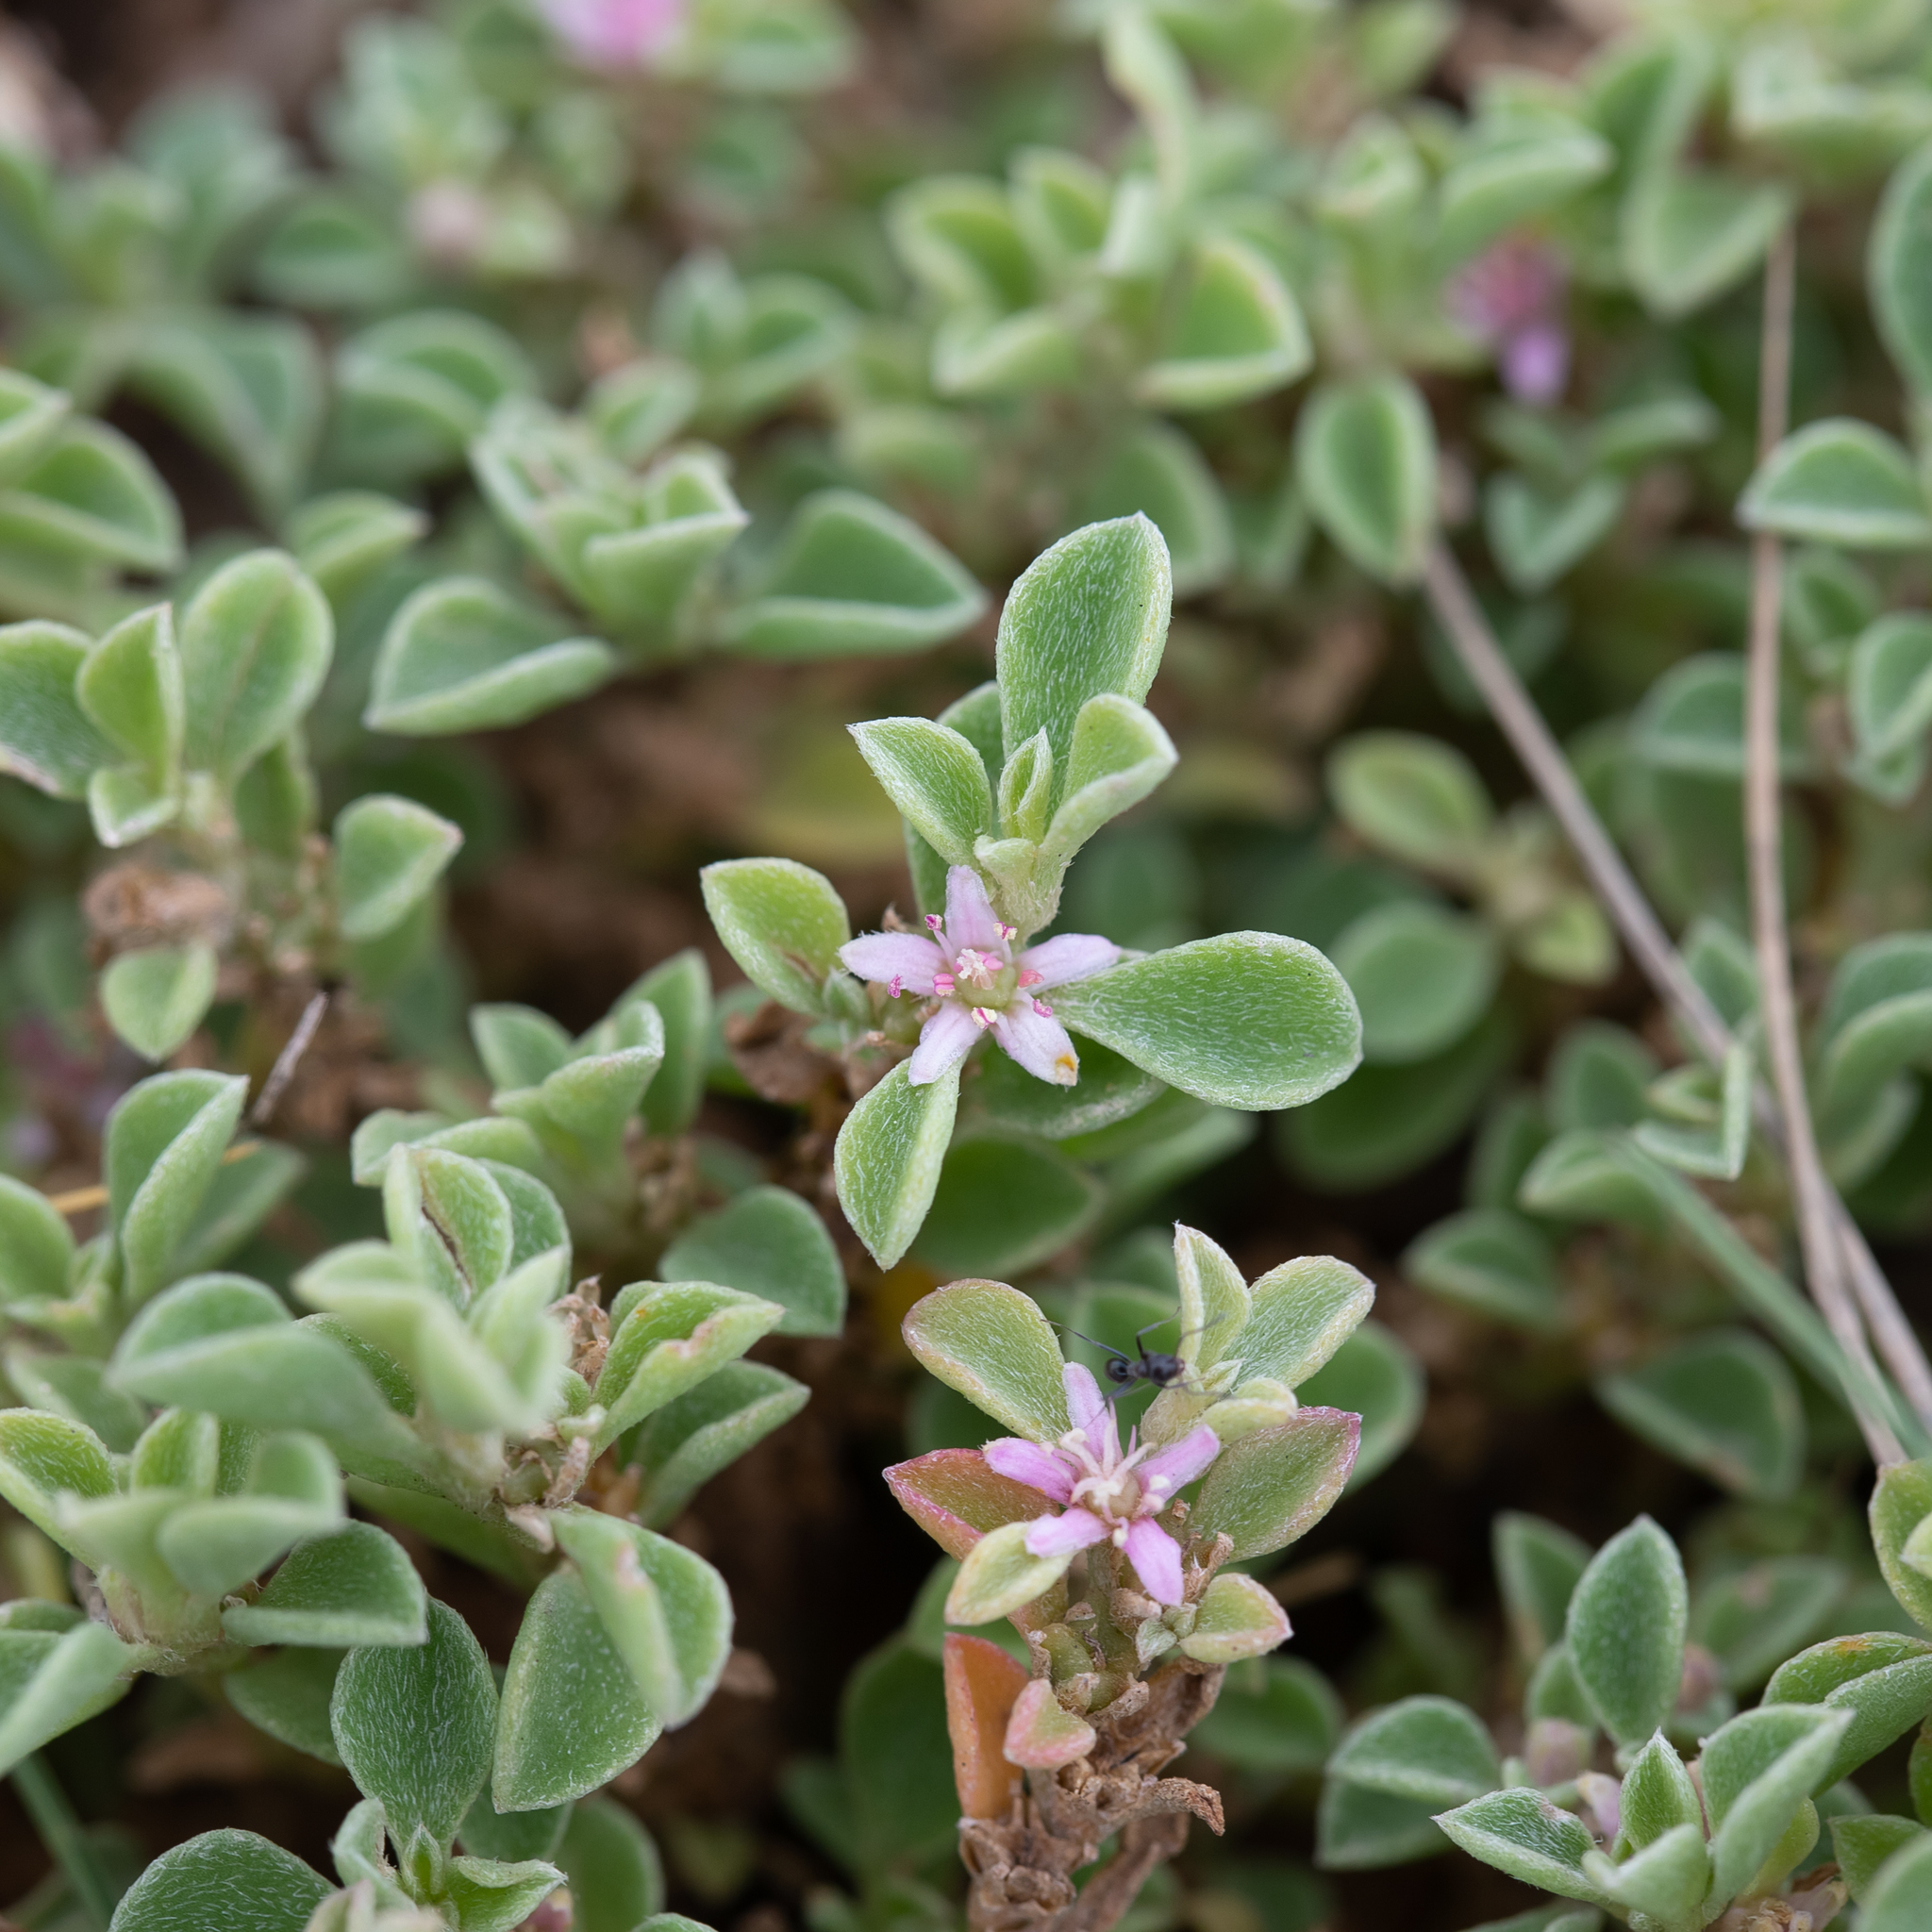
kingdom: Plantae
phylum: Tracheophyta
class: Magnoliopsida
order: Caryophyllales
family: Aizoaceae
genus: Aizoon
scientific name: Aizoon pubescens
